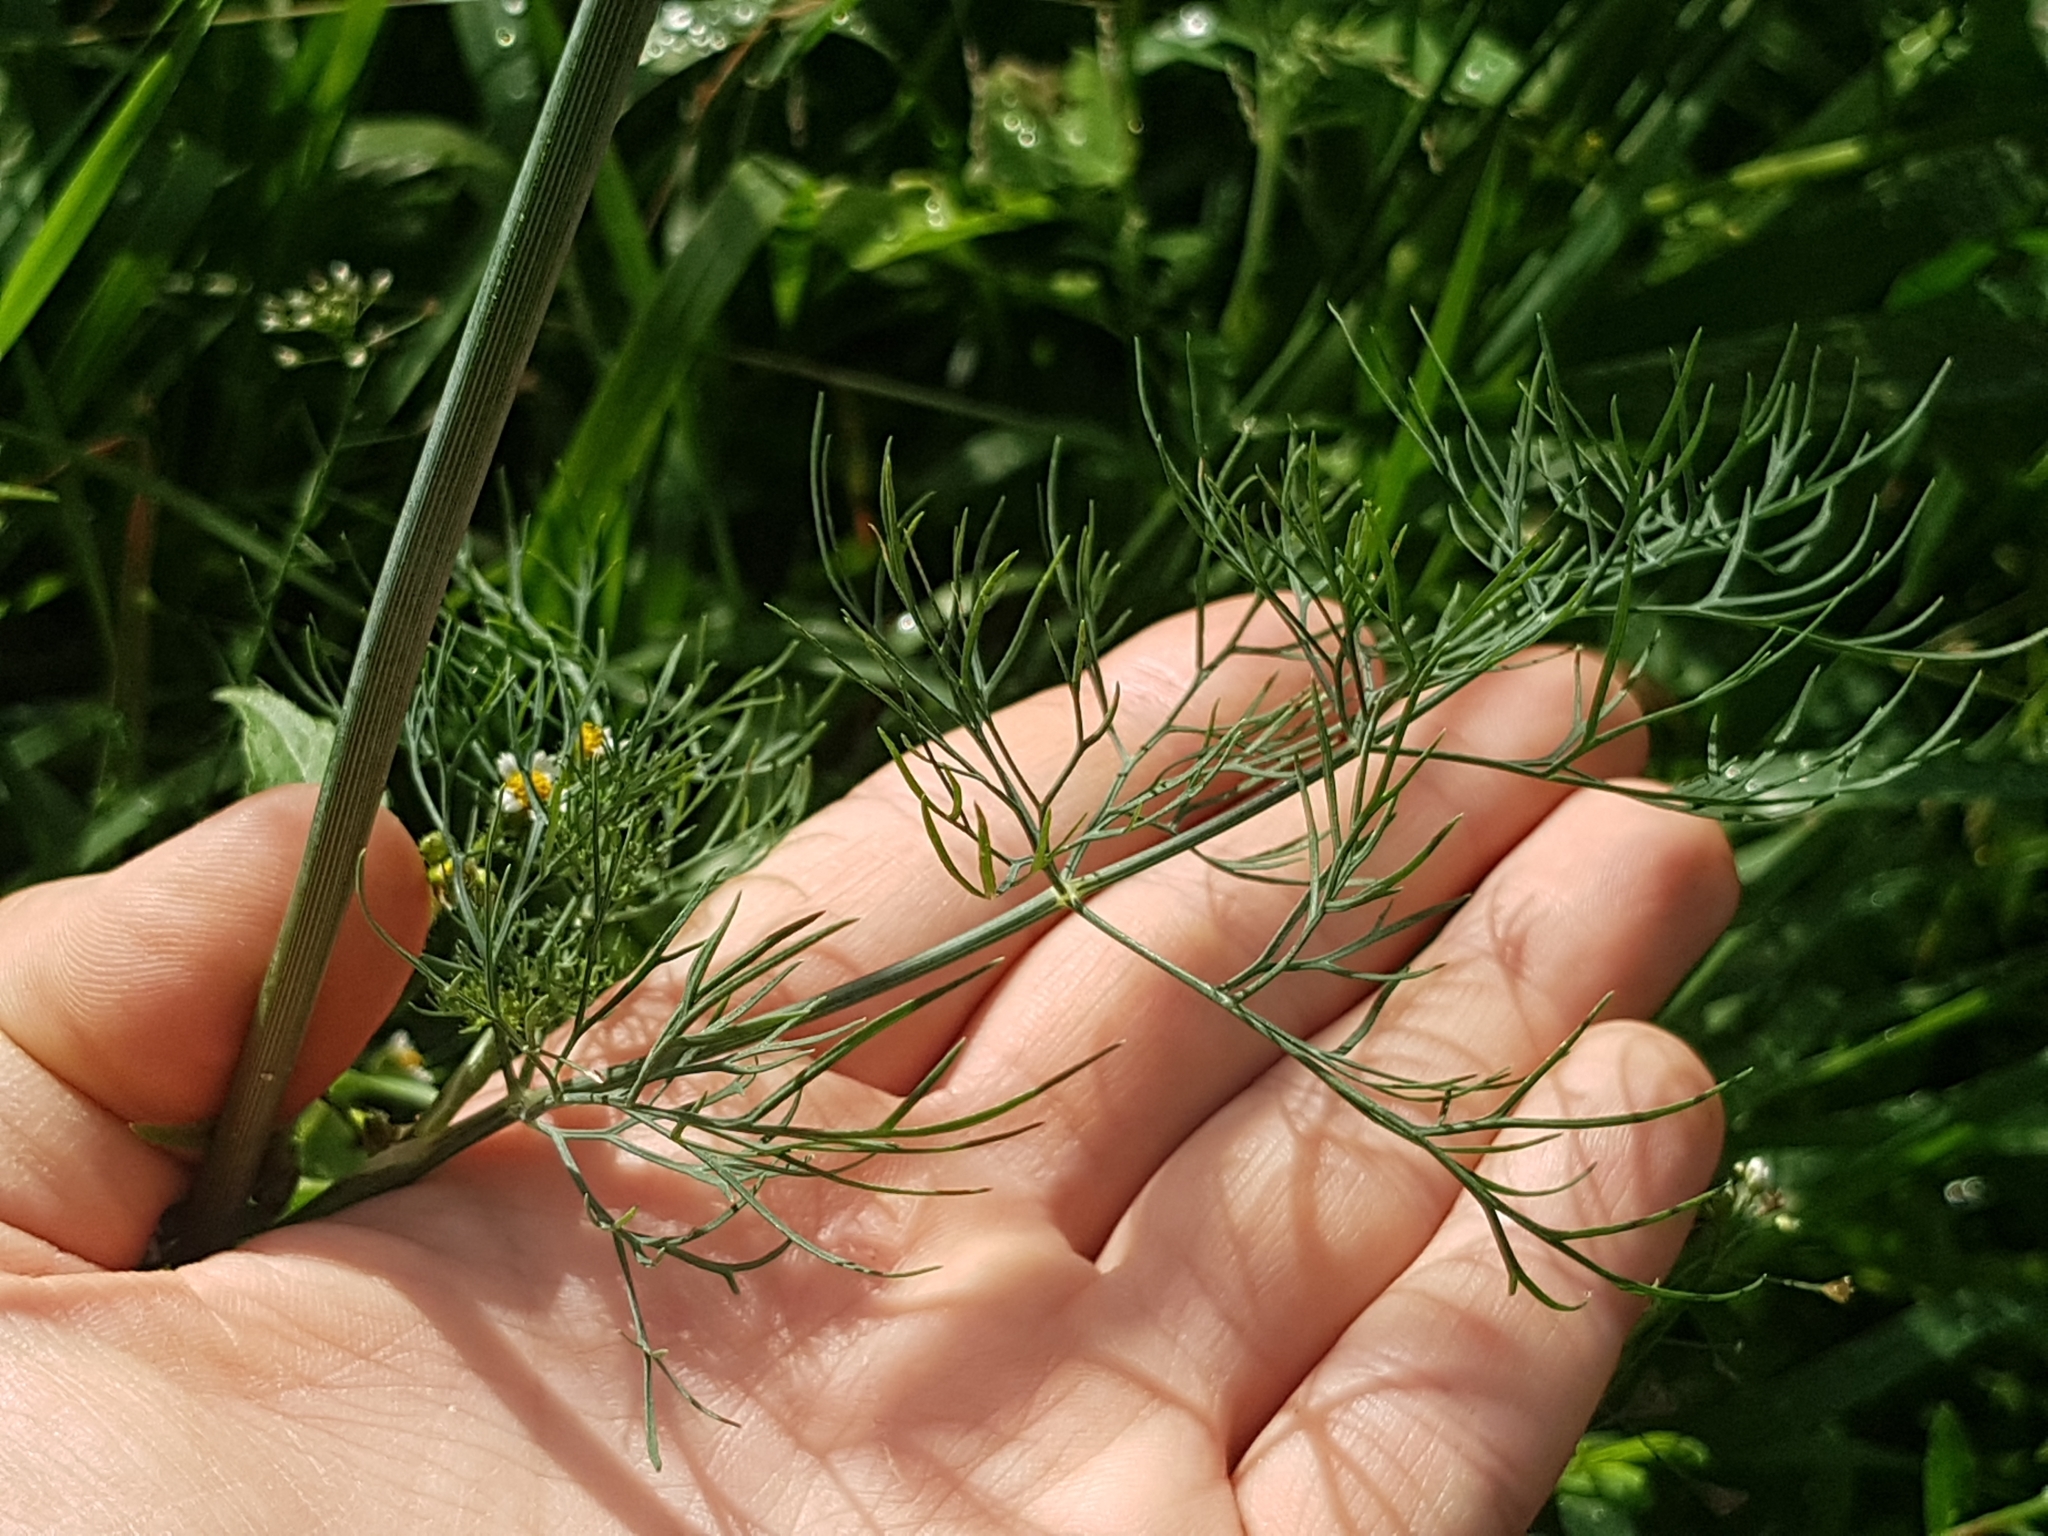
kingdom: Plantae
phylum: Tracheophyta
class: Magnoliopsida
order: Apiales
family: Apiaceae
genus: Anethum
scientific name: Anethum graveolens
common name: Dill
